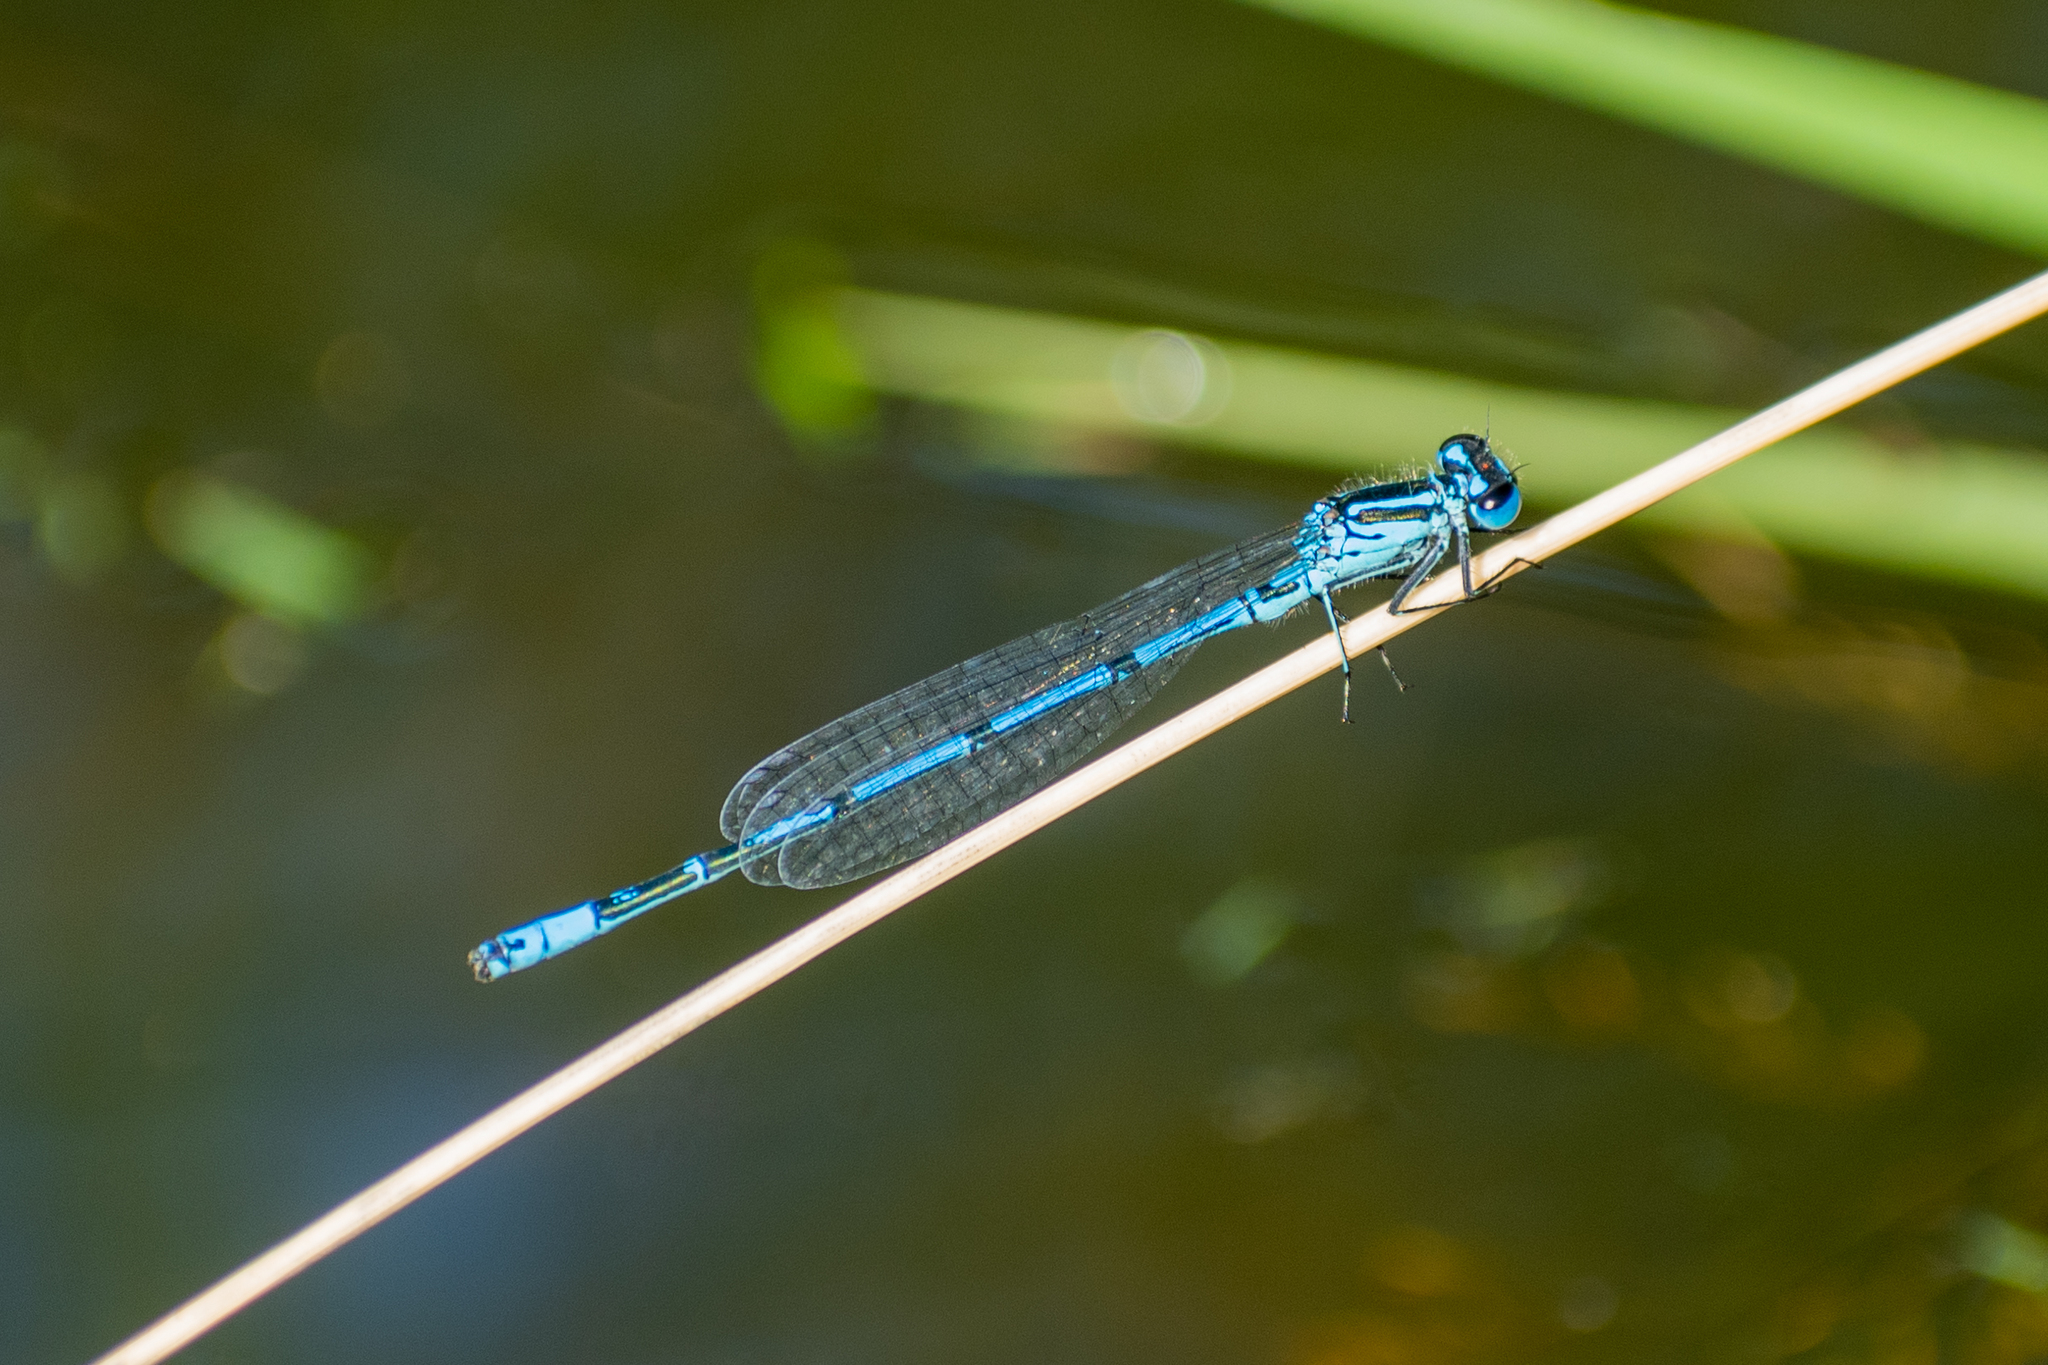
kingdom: Animalia
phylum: Arthropoda
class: Insecta
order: Odonata
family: Coenagrionidae
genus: Coenagrion
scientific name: Coenagrion puella
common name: Azure damselfly
